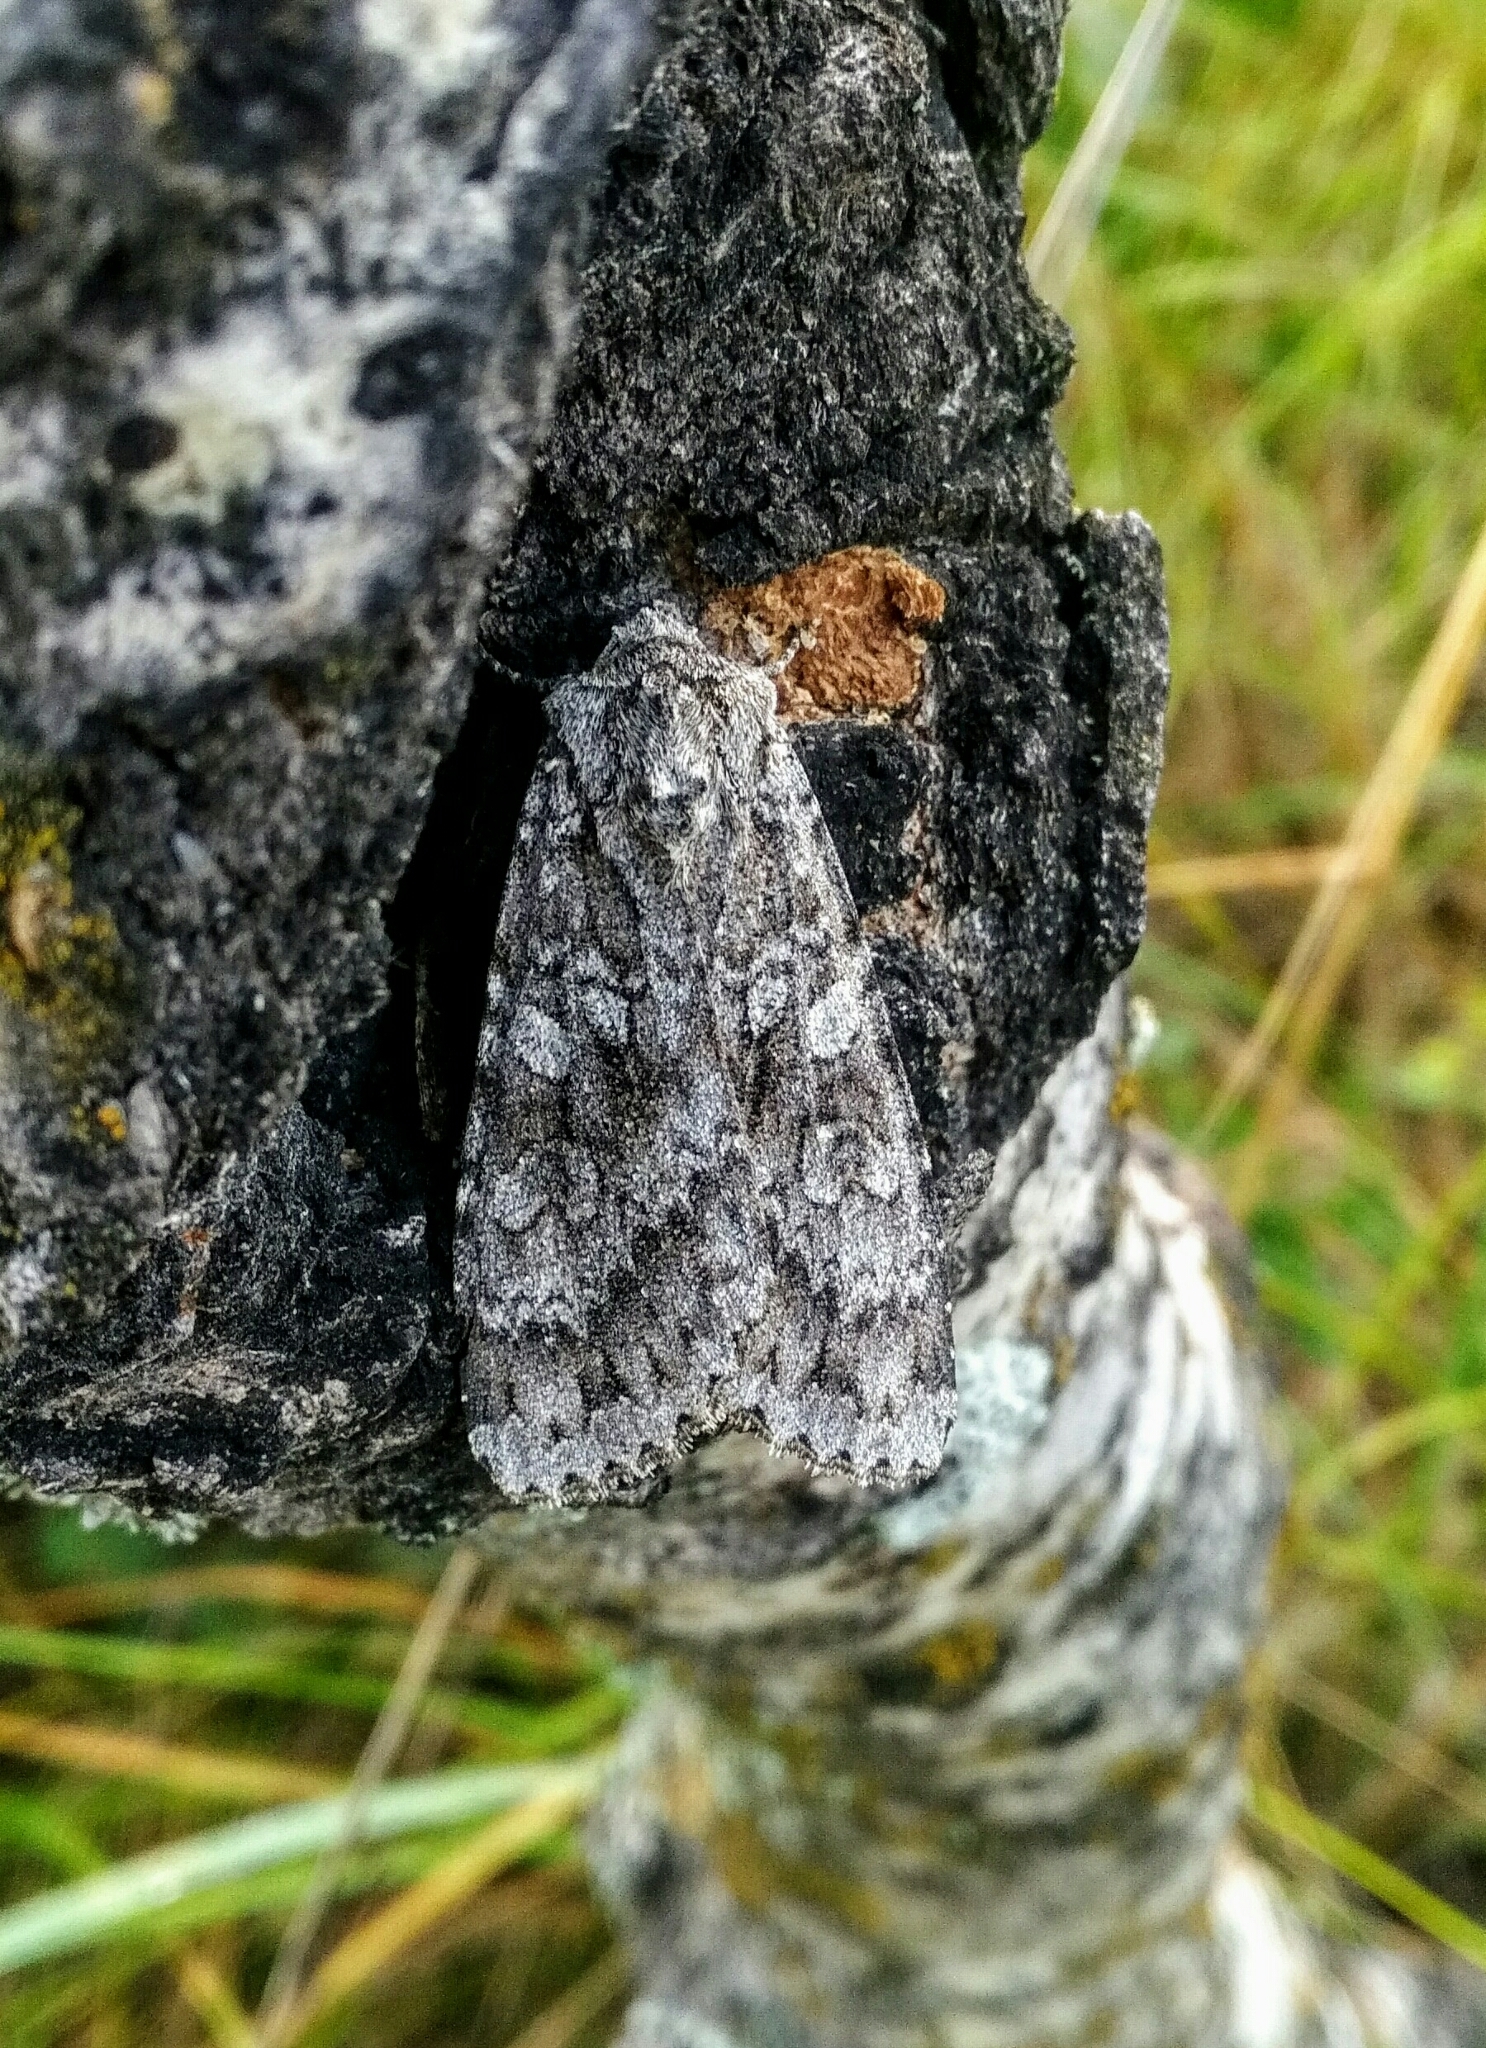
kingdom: Animalia
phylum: Arthropoda
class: Insecta
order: Lepidoptera
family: Noctuidae
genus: Eurois
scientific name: Eurois occulta
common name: Great brocade
